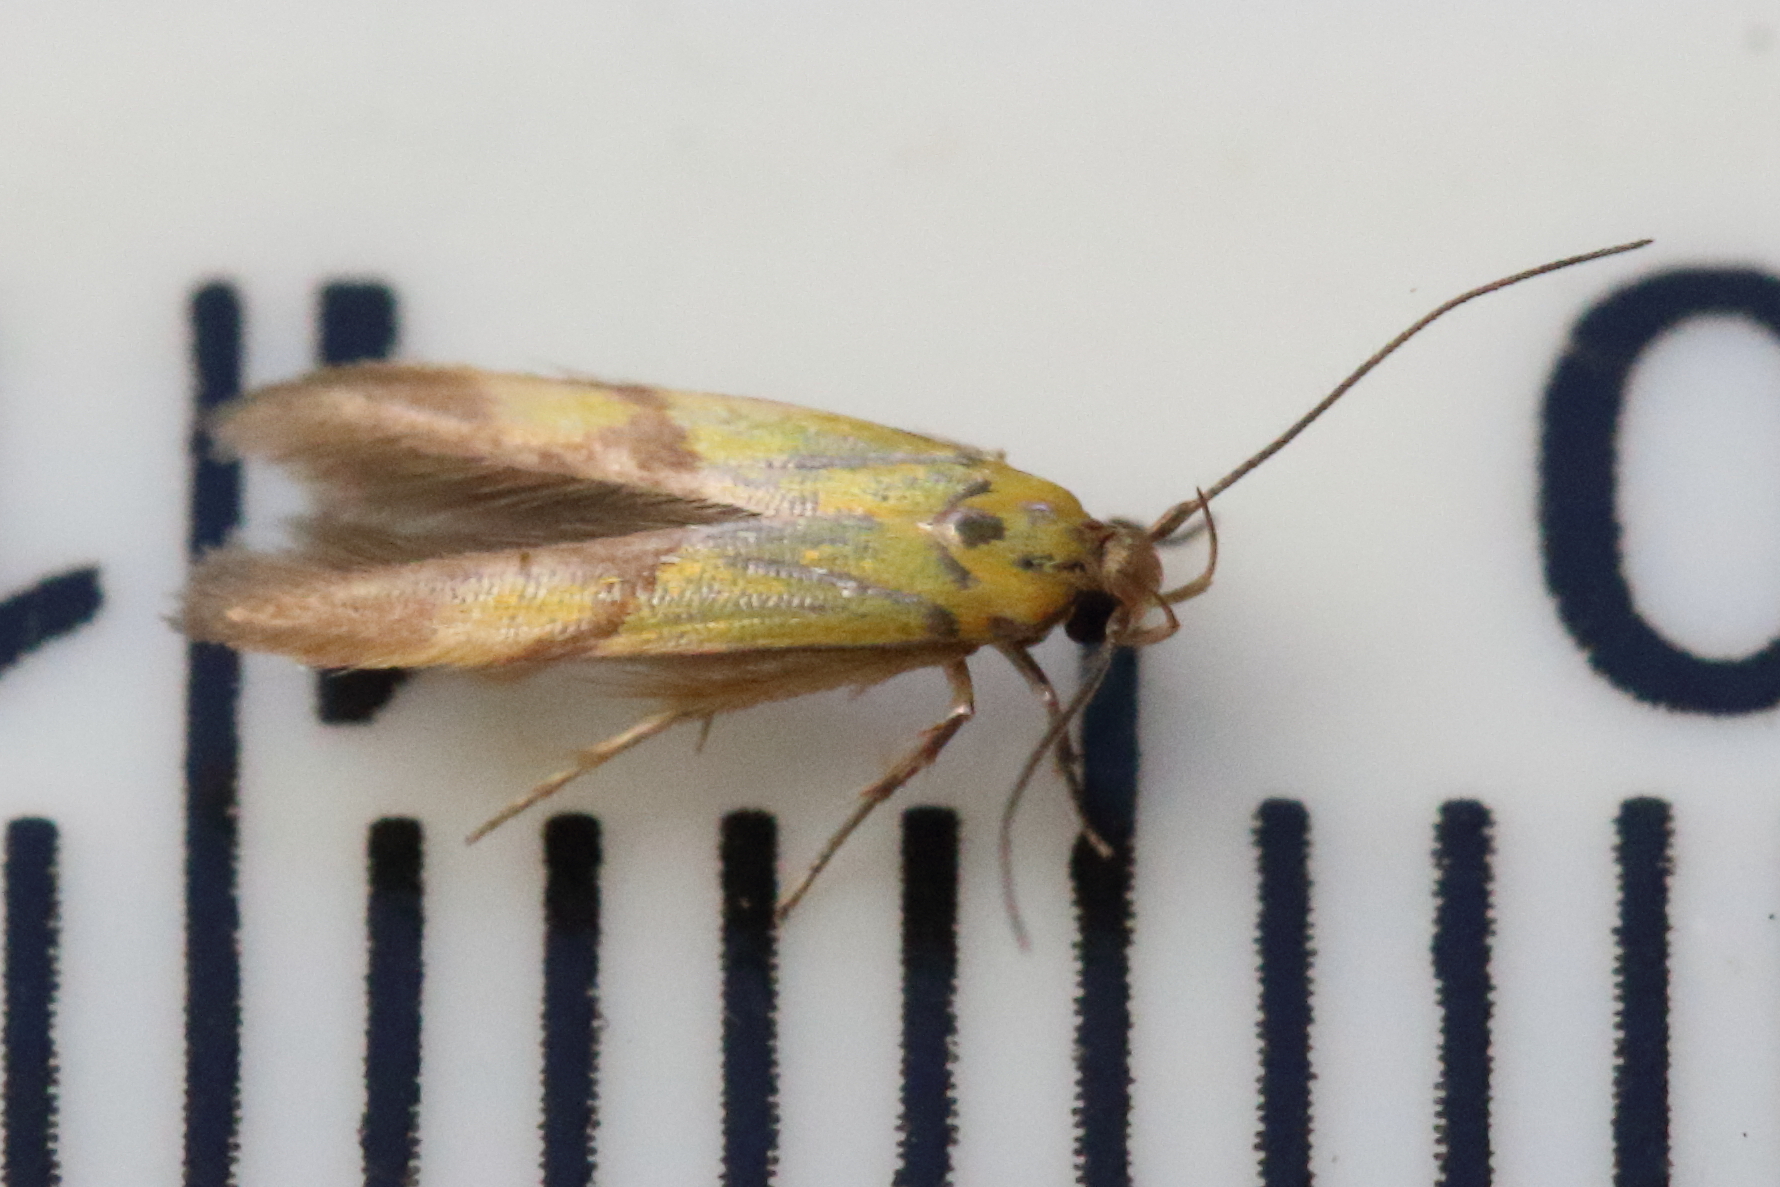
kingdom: Animalia
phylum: Arthropoda
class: Insecta
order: Lepidoptera
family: Stathmopodidae
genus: Stathmopoda
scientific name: Stathmopoda auriferella
